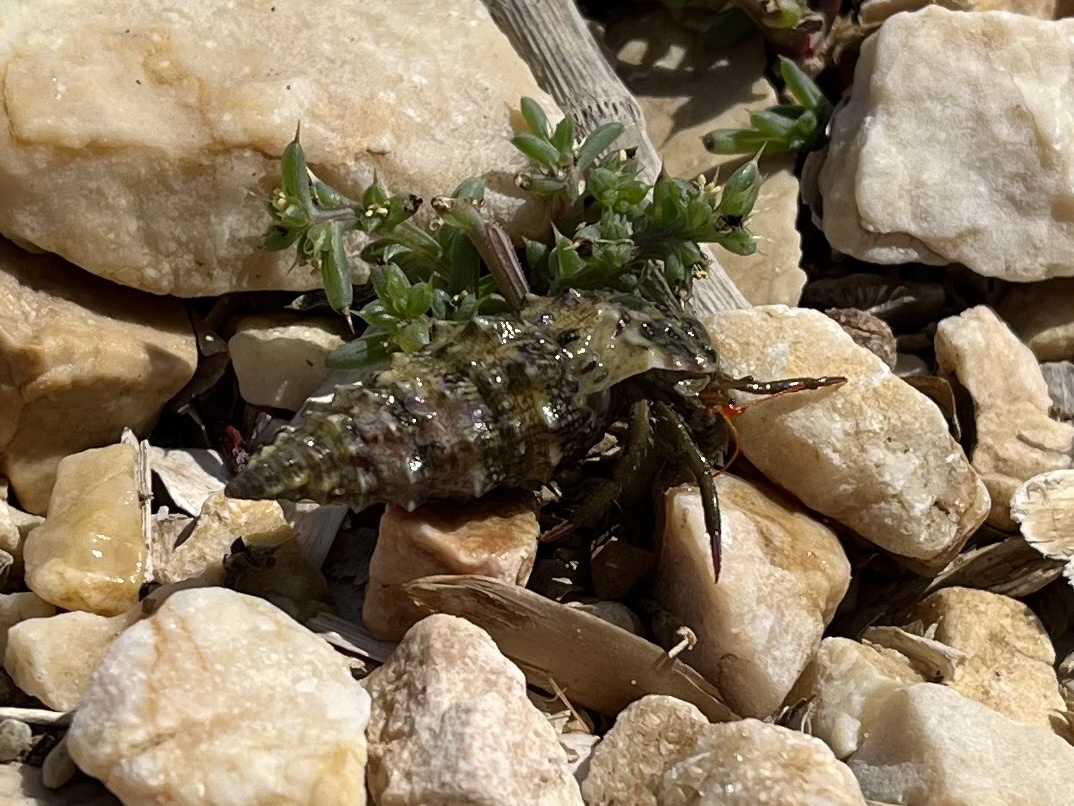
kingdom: Animalia
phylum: Arthropoda
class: Malacostraca
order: Decapoda
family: Diogenidae
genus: Clibanarius
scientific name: Clibanarius erythropus
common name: Hermit crab
